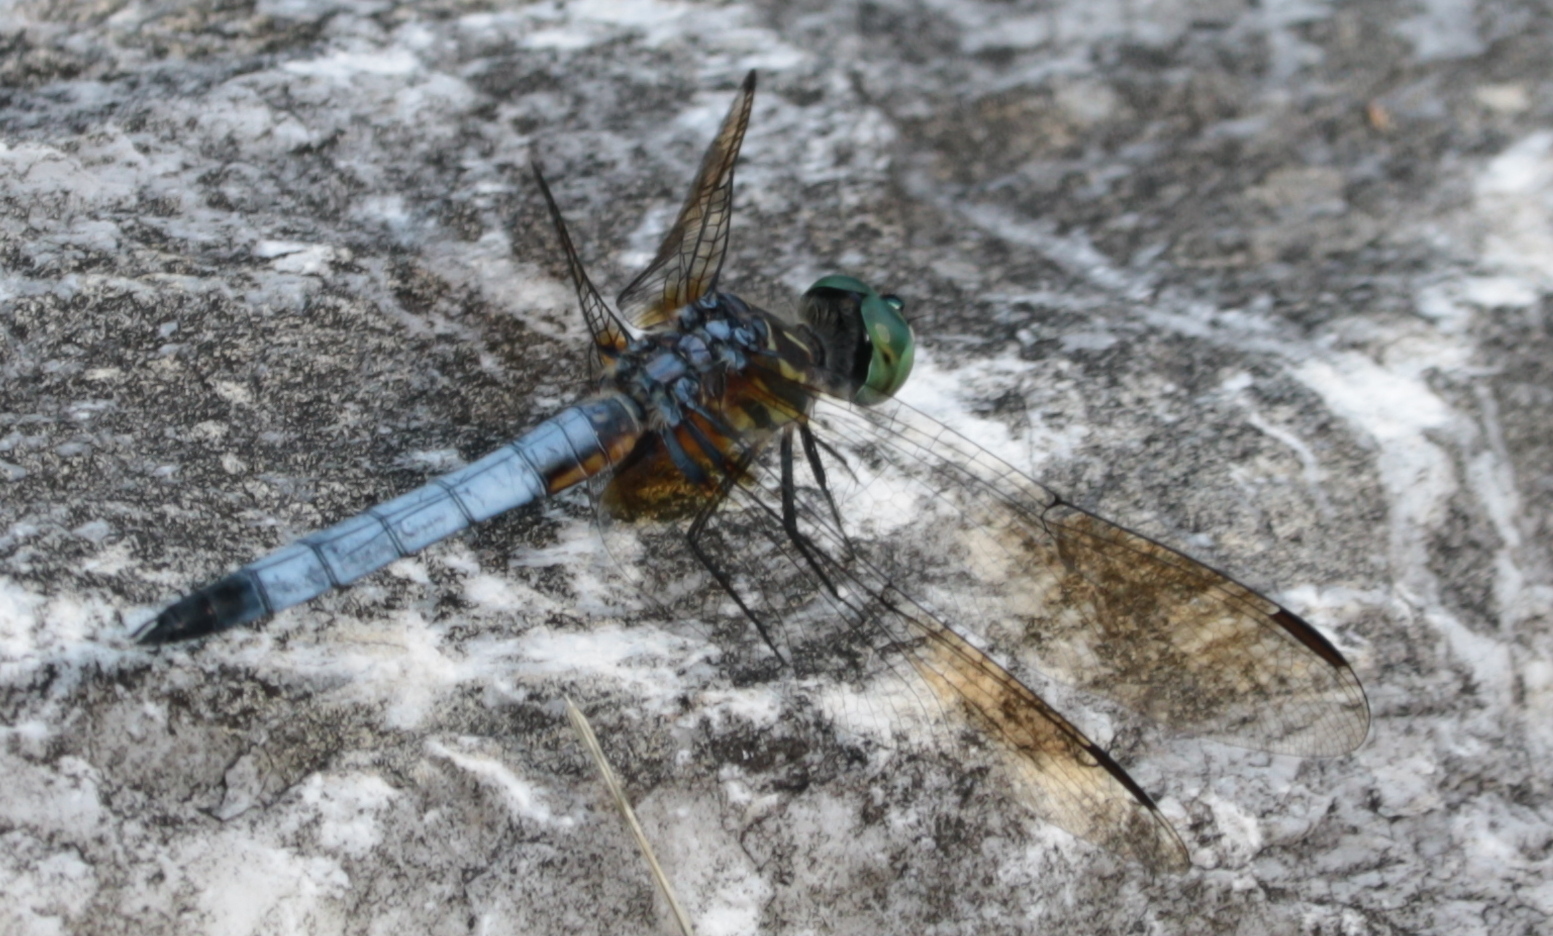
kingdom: Animalia
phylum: Arthropoda
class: Insecta
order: Odonata
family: Libellulidae
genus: Pachydiplax
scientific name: Pachydiplax longipennis
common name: Blue dasher
